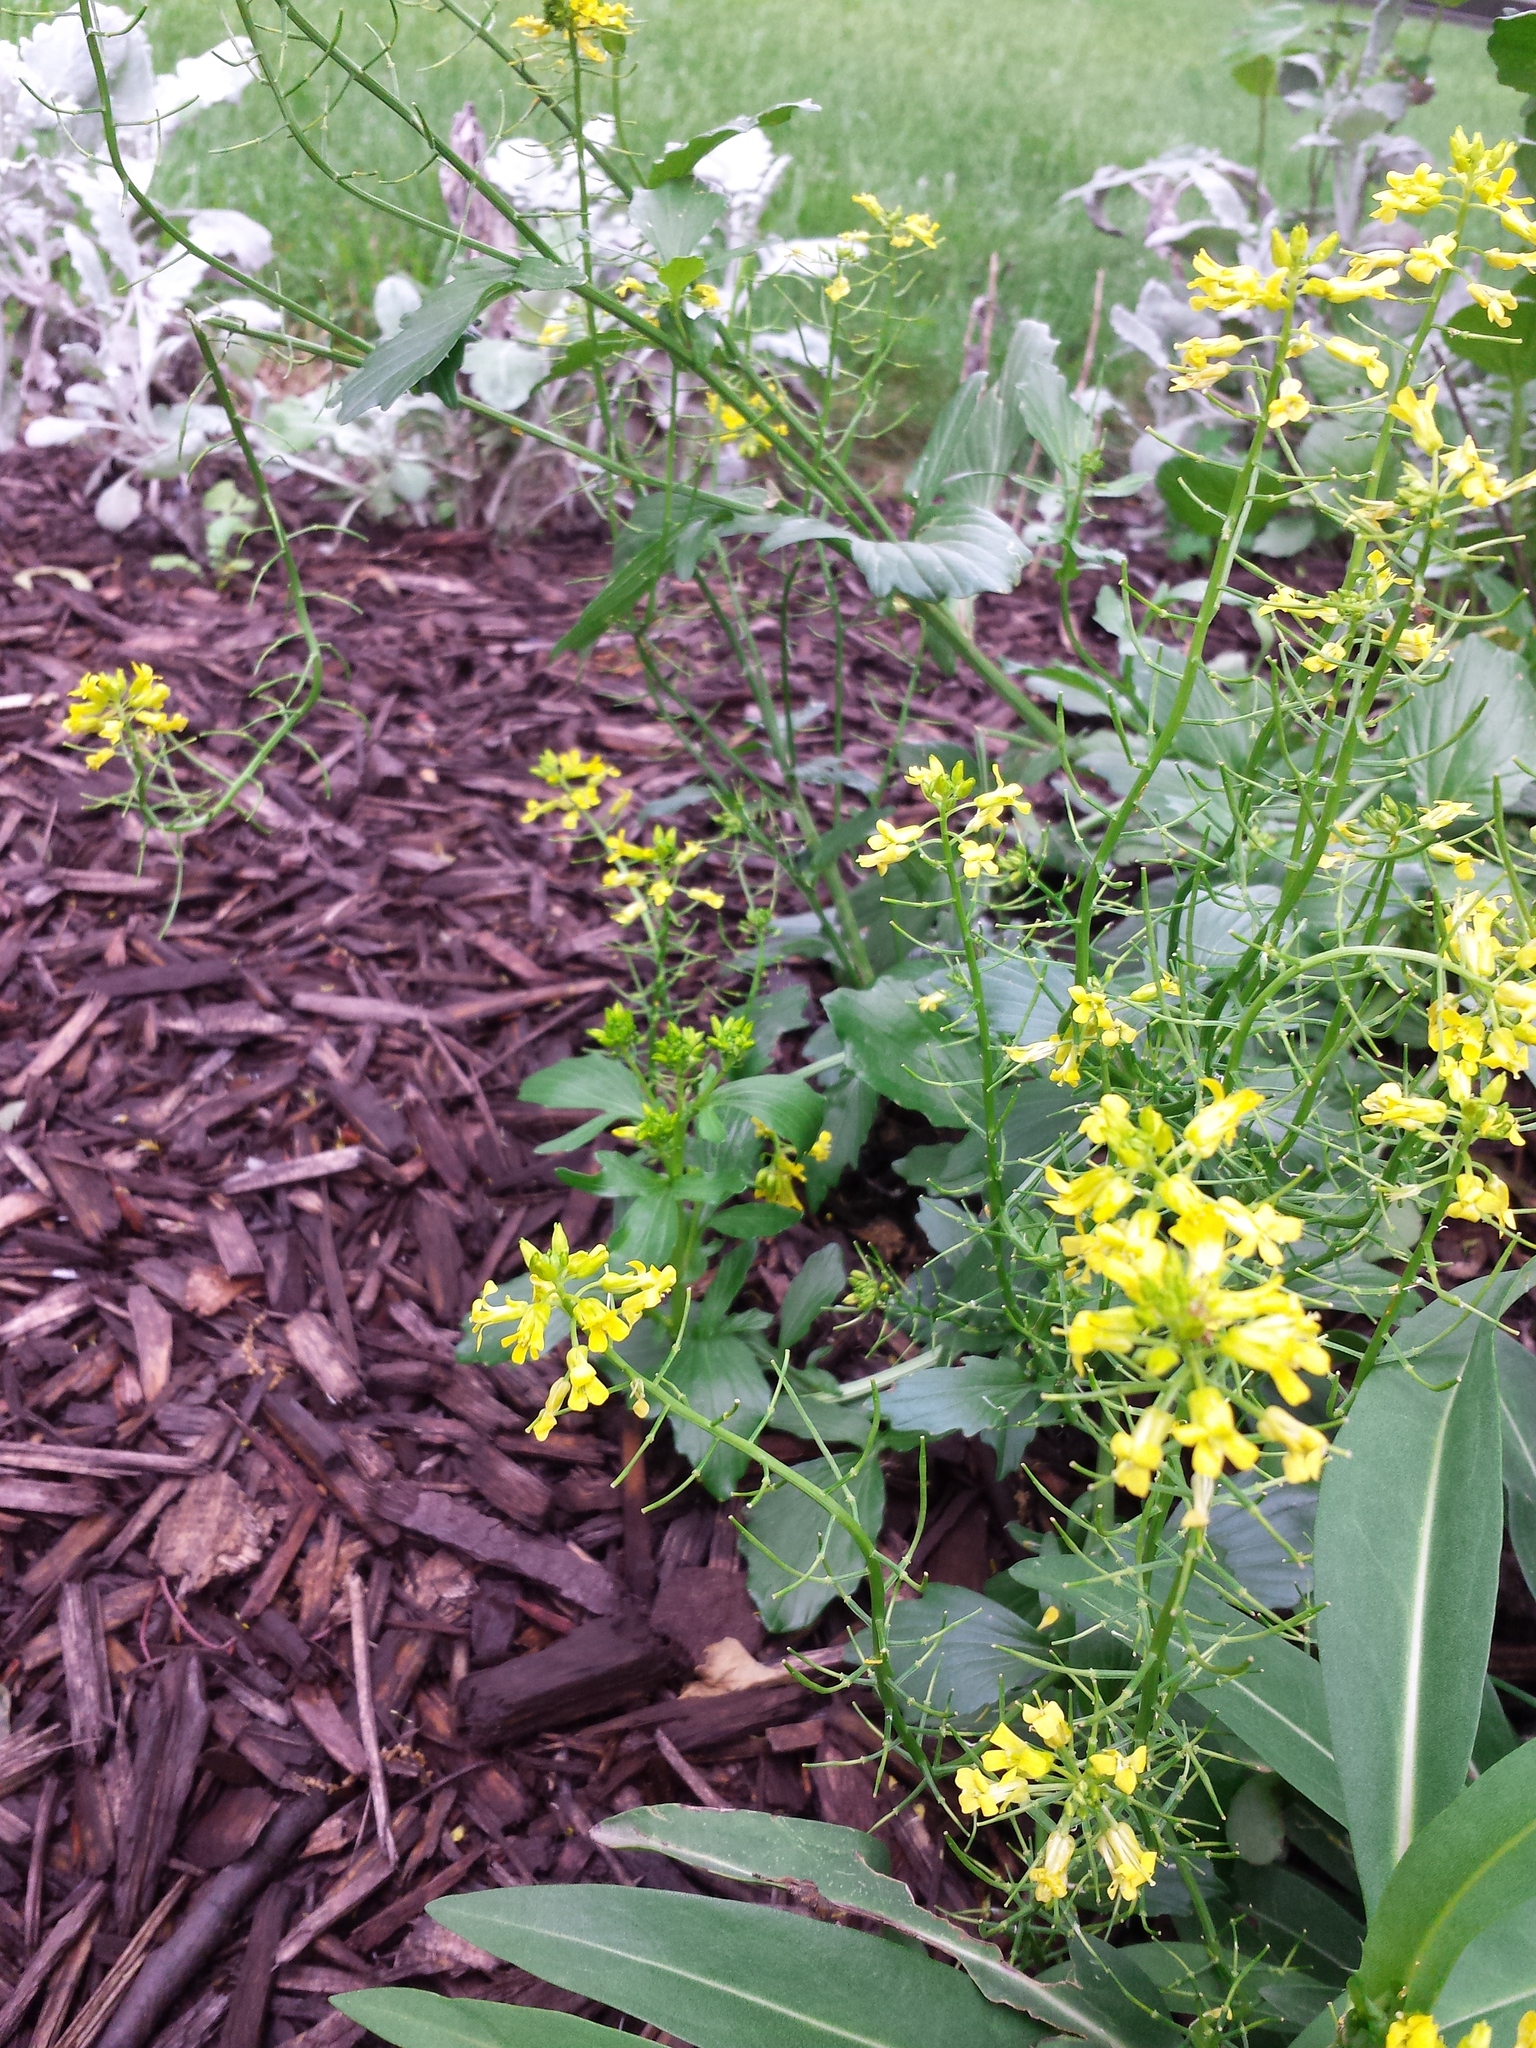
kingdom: Plantae
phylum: Tracheophyta
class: Magnoliopsida
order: Brassicales
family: Brassicaceae
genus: Barbarea
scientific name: Barbarea vulgaris
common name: Cressy-greens
